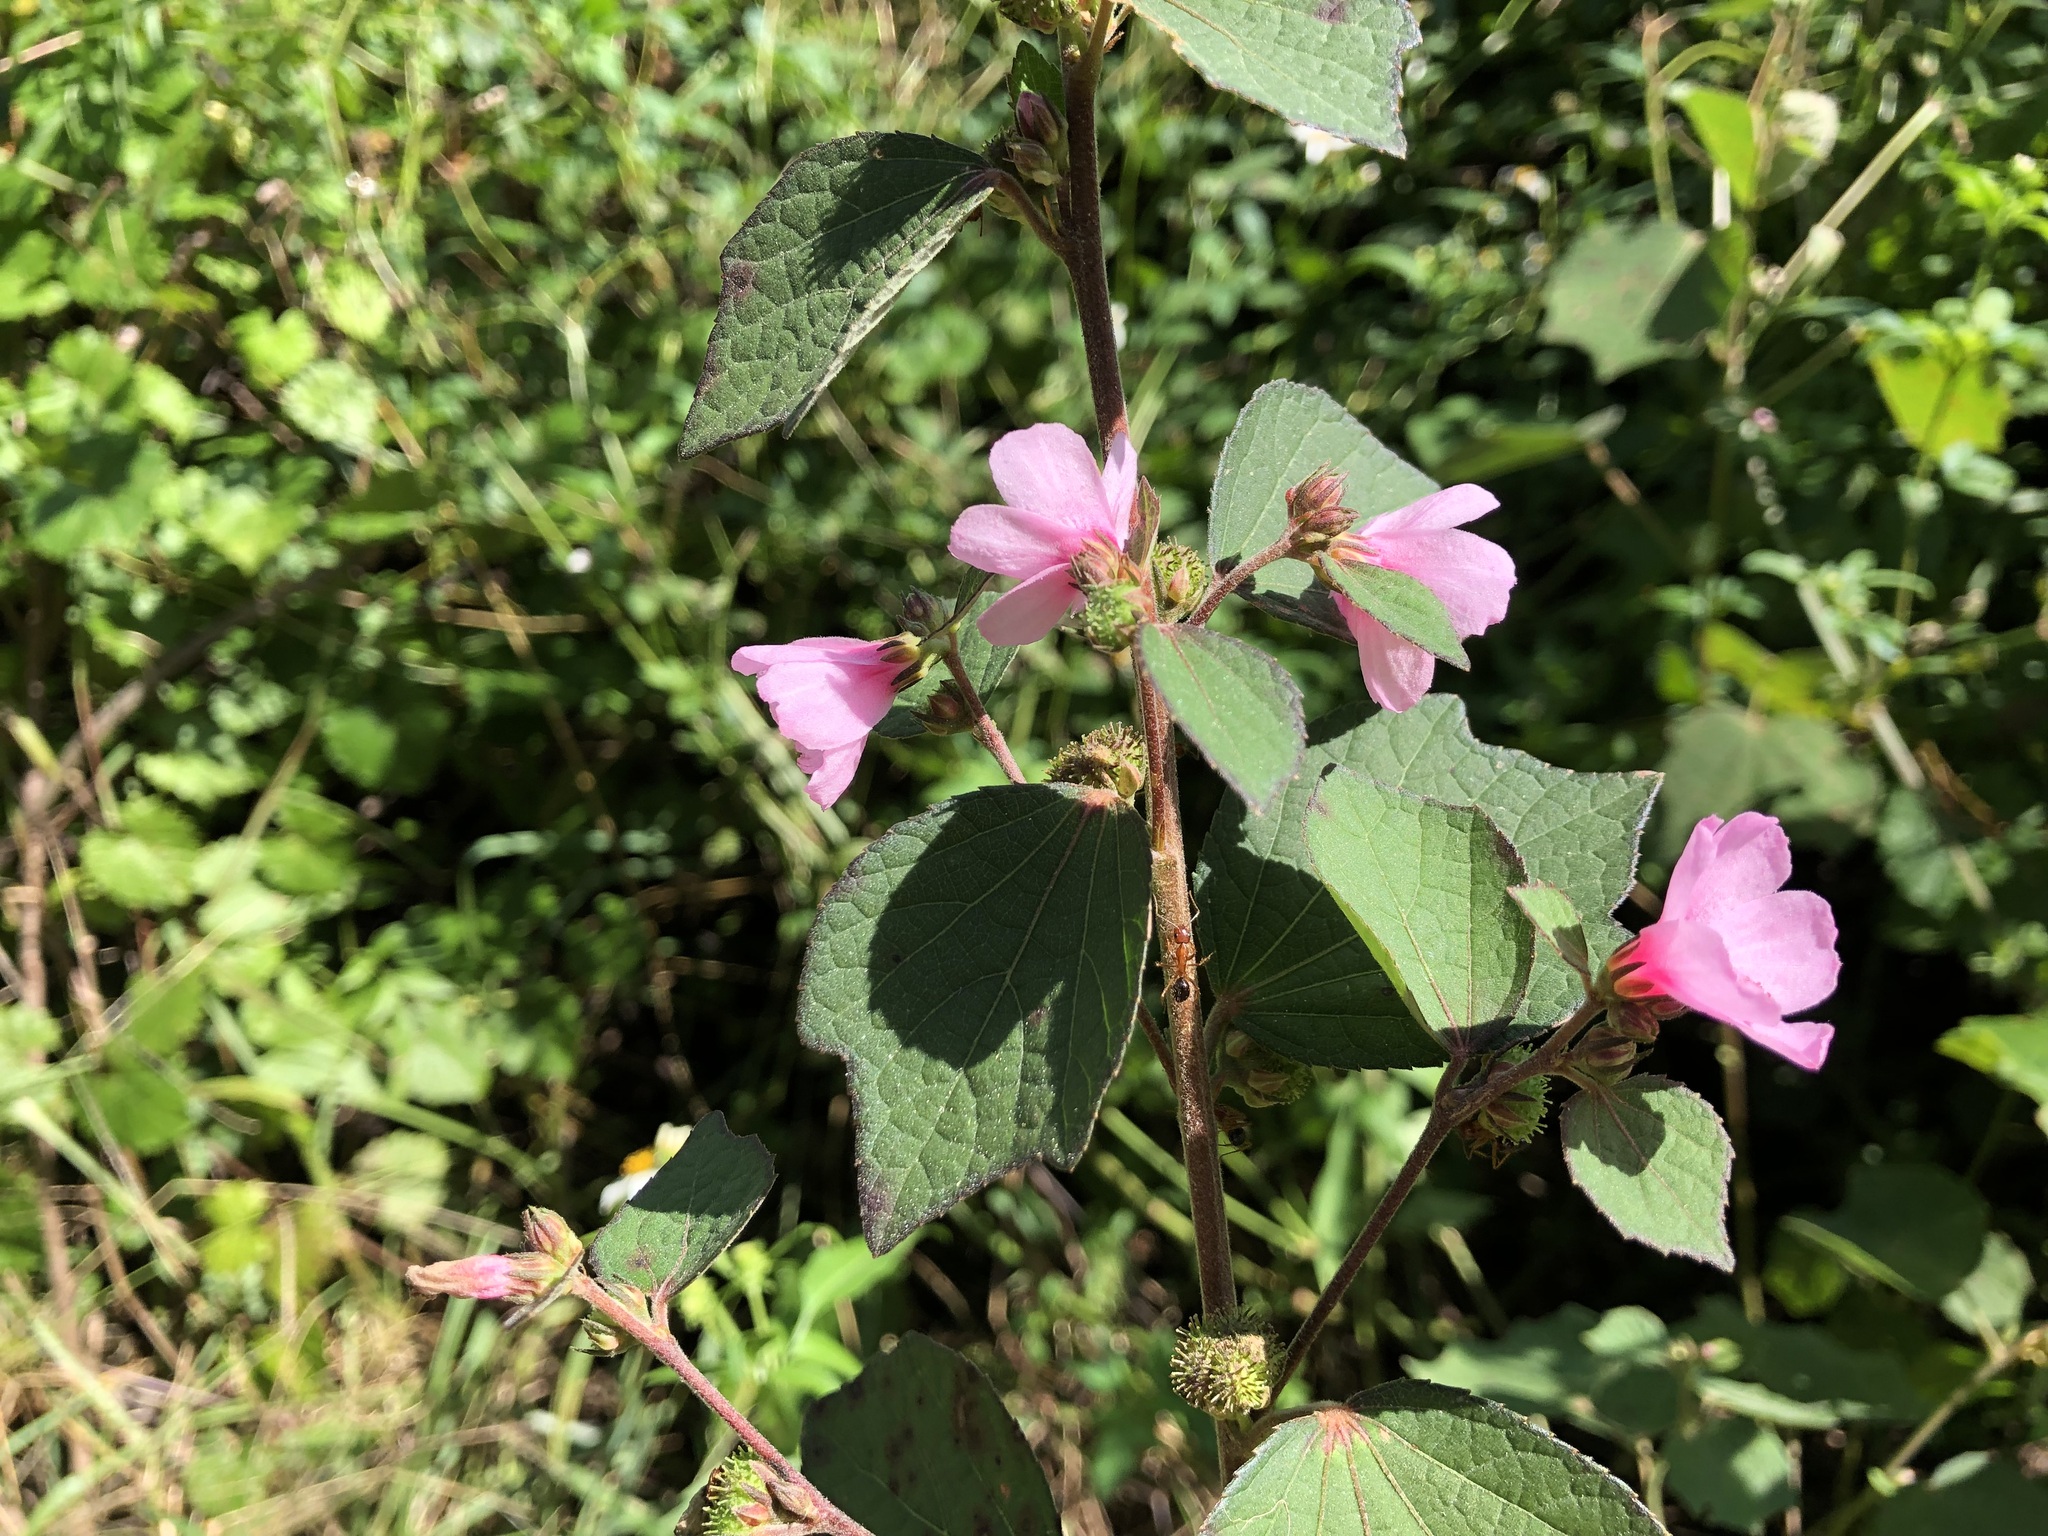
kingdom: Plantae
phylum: Tracheophyta
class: Magnoliopsida
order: Malvales
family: Malvaceae
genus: Urena
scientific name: Urena lobata
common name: Caesarweed
